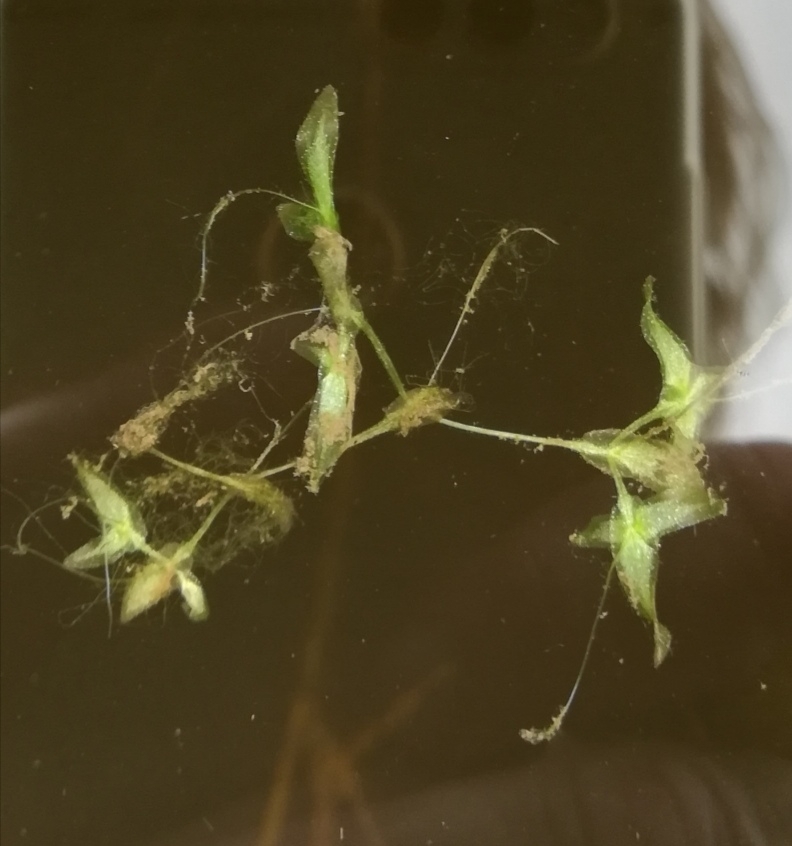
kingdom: Plantae
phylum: Tracheophyta
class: Liliopsida
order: Alismatales
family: Araceae
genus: Lemna
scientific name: Lemna trisulca
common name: Ivy-leaved duckweed
